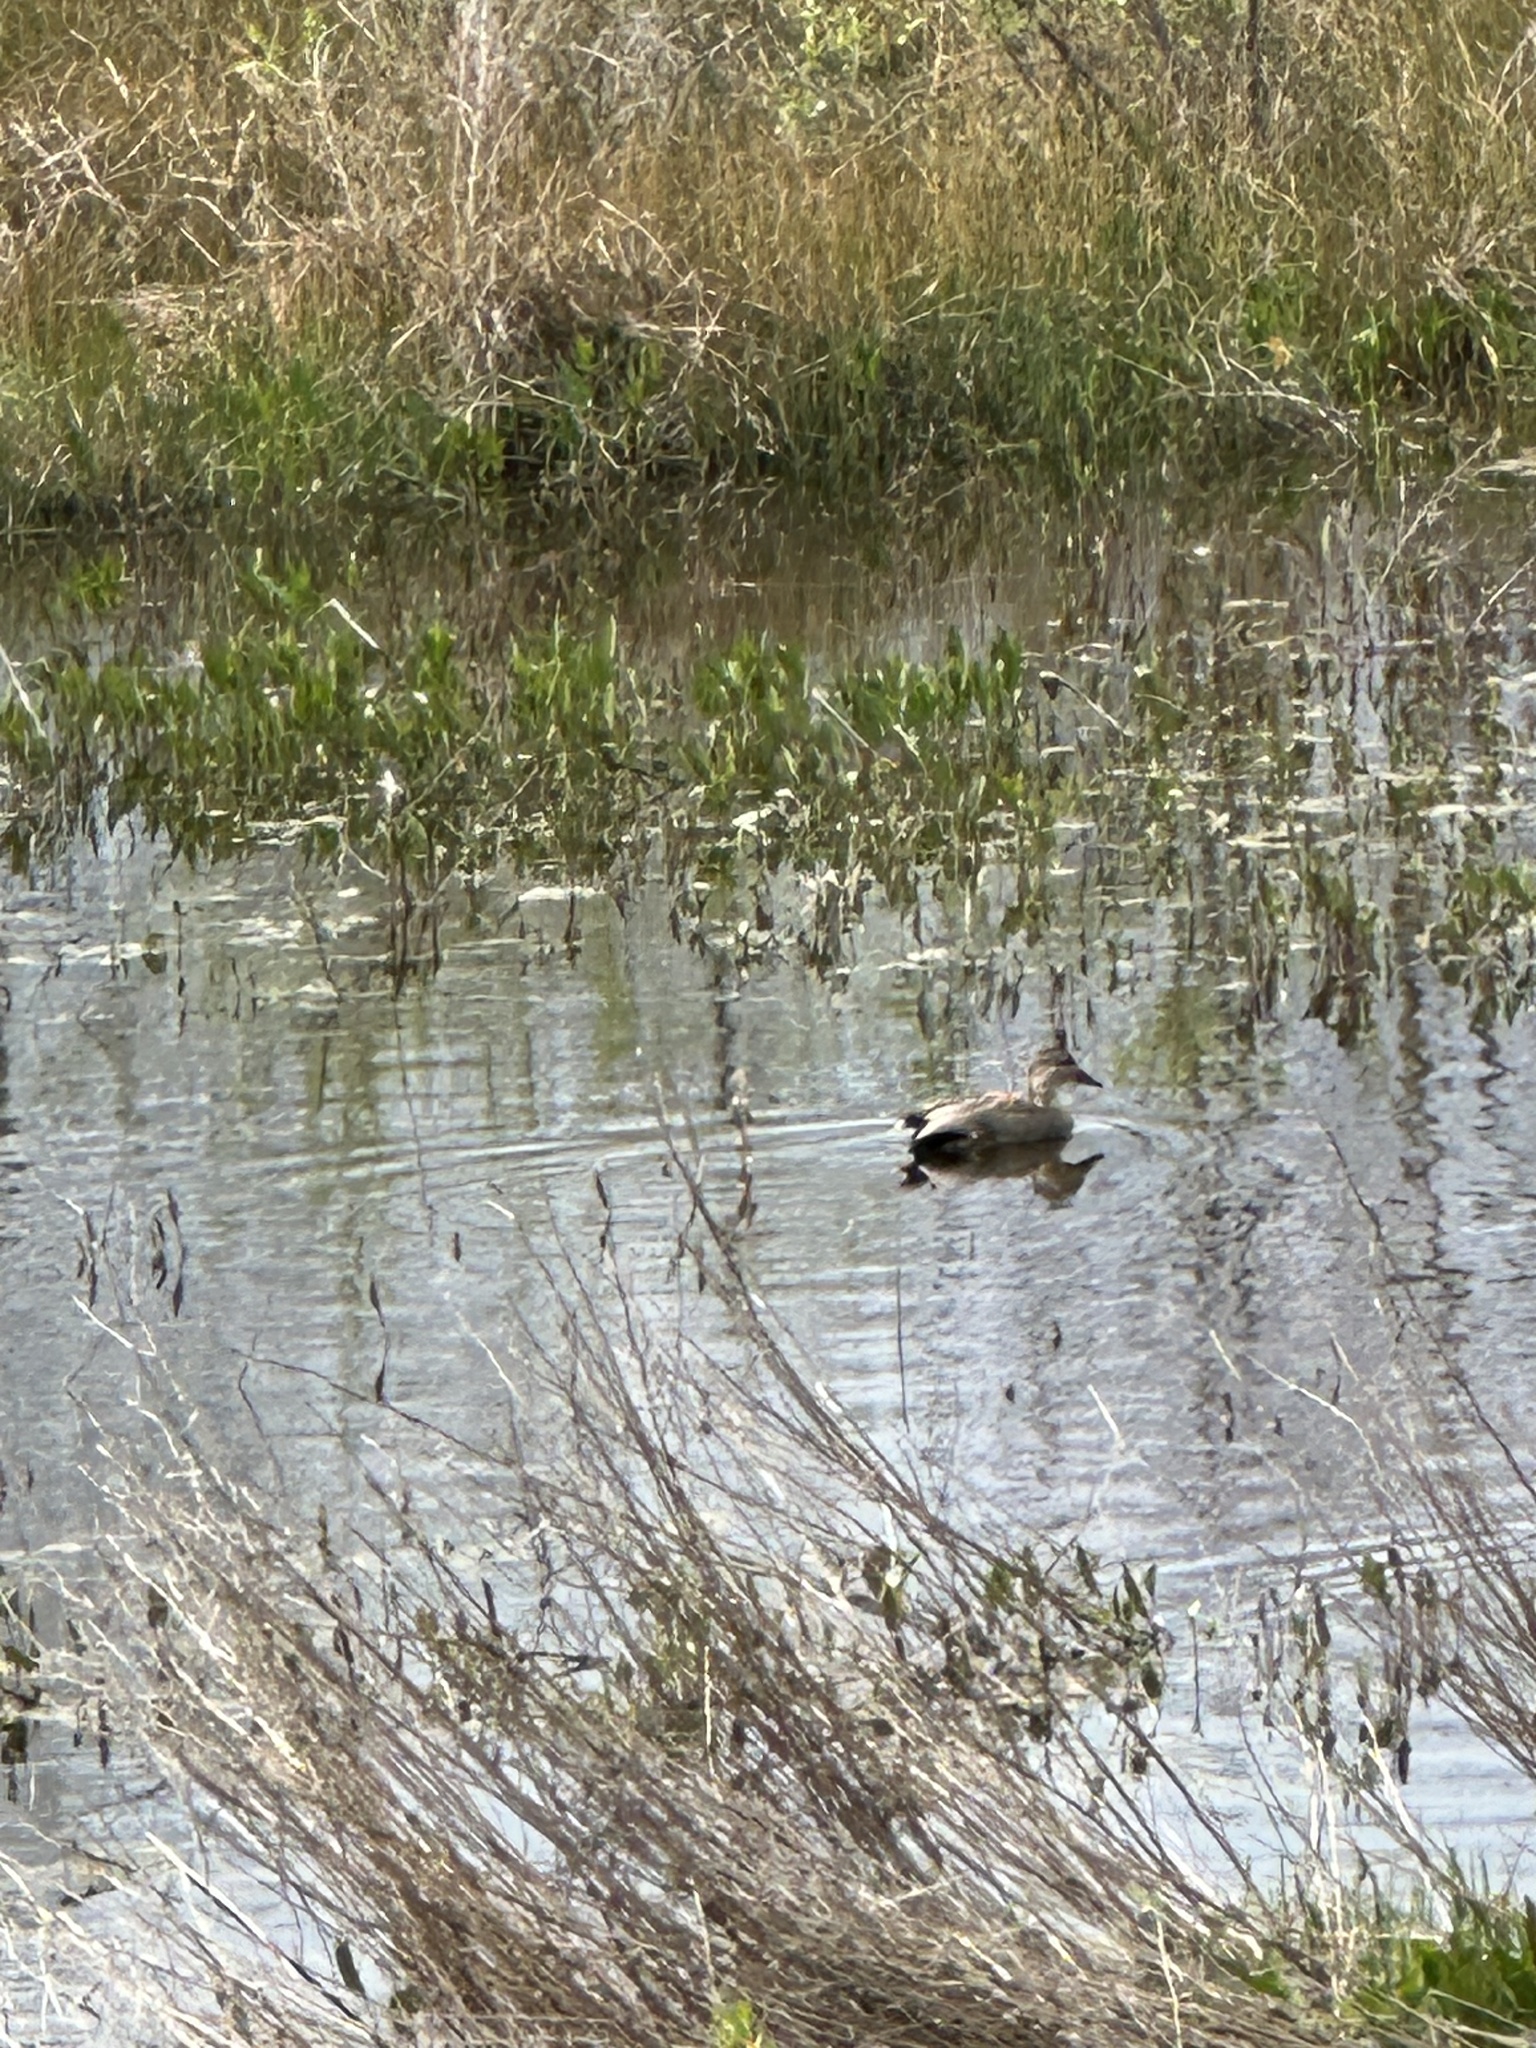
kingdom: Animalia
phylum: Chordata
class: Aves
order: Anseriformes
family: Anatidae
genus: Mareca
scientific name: Mareca strepera
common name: Gadwall
